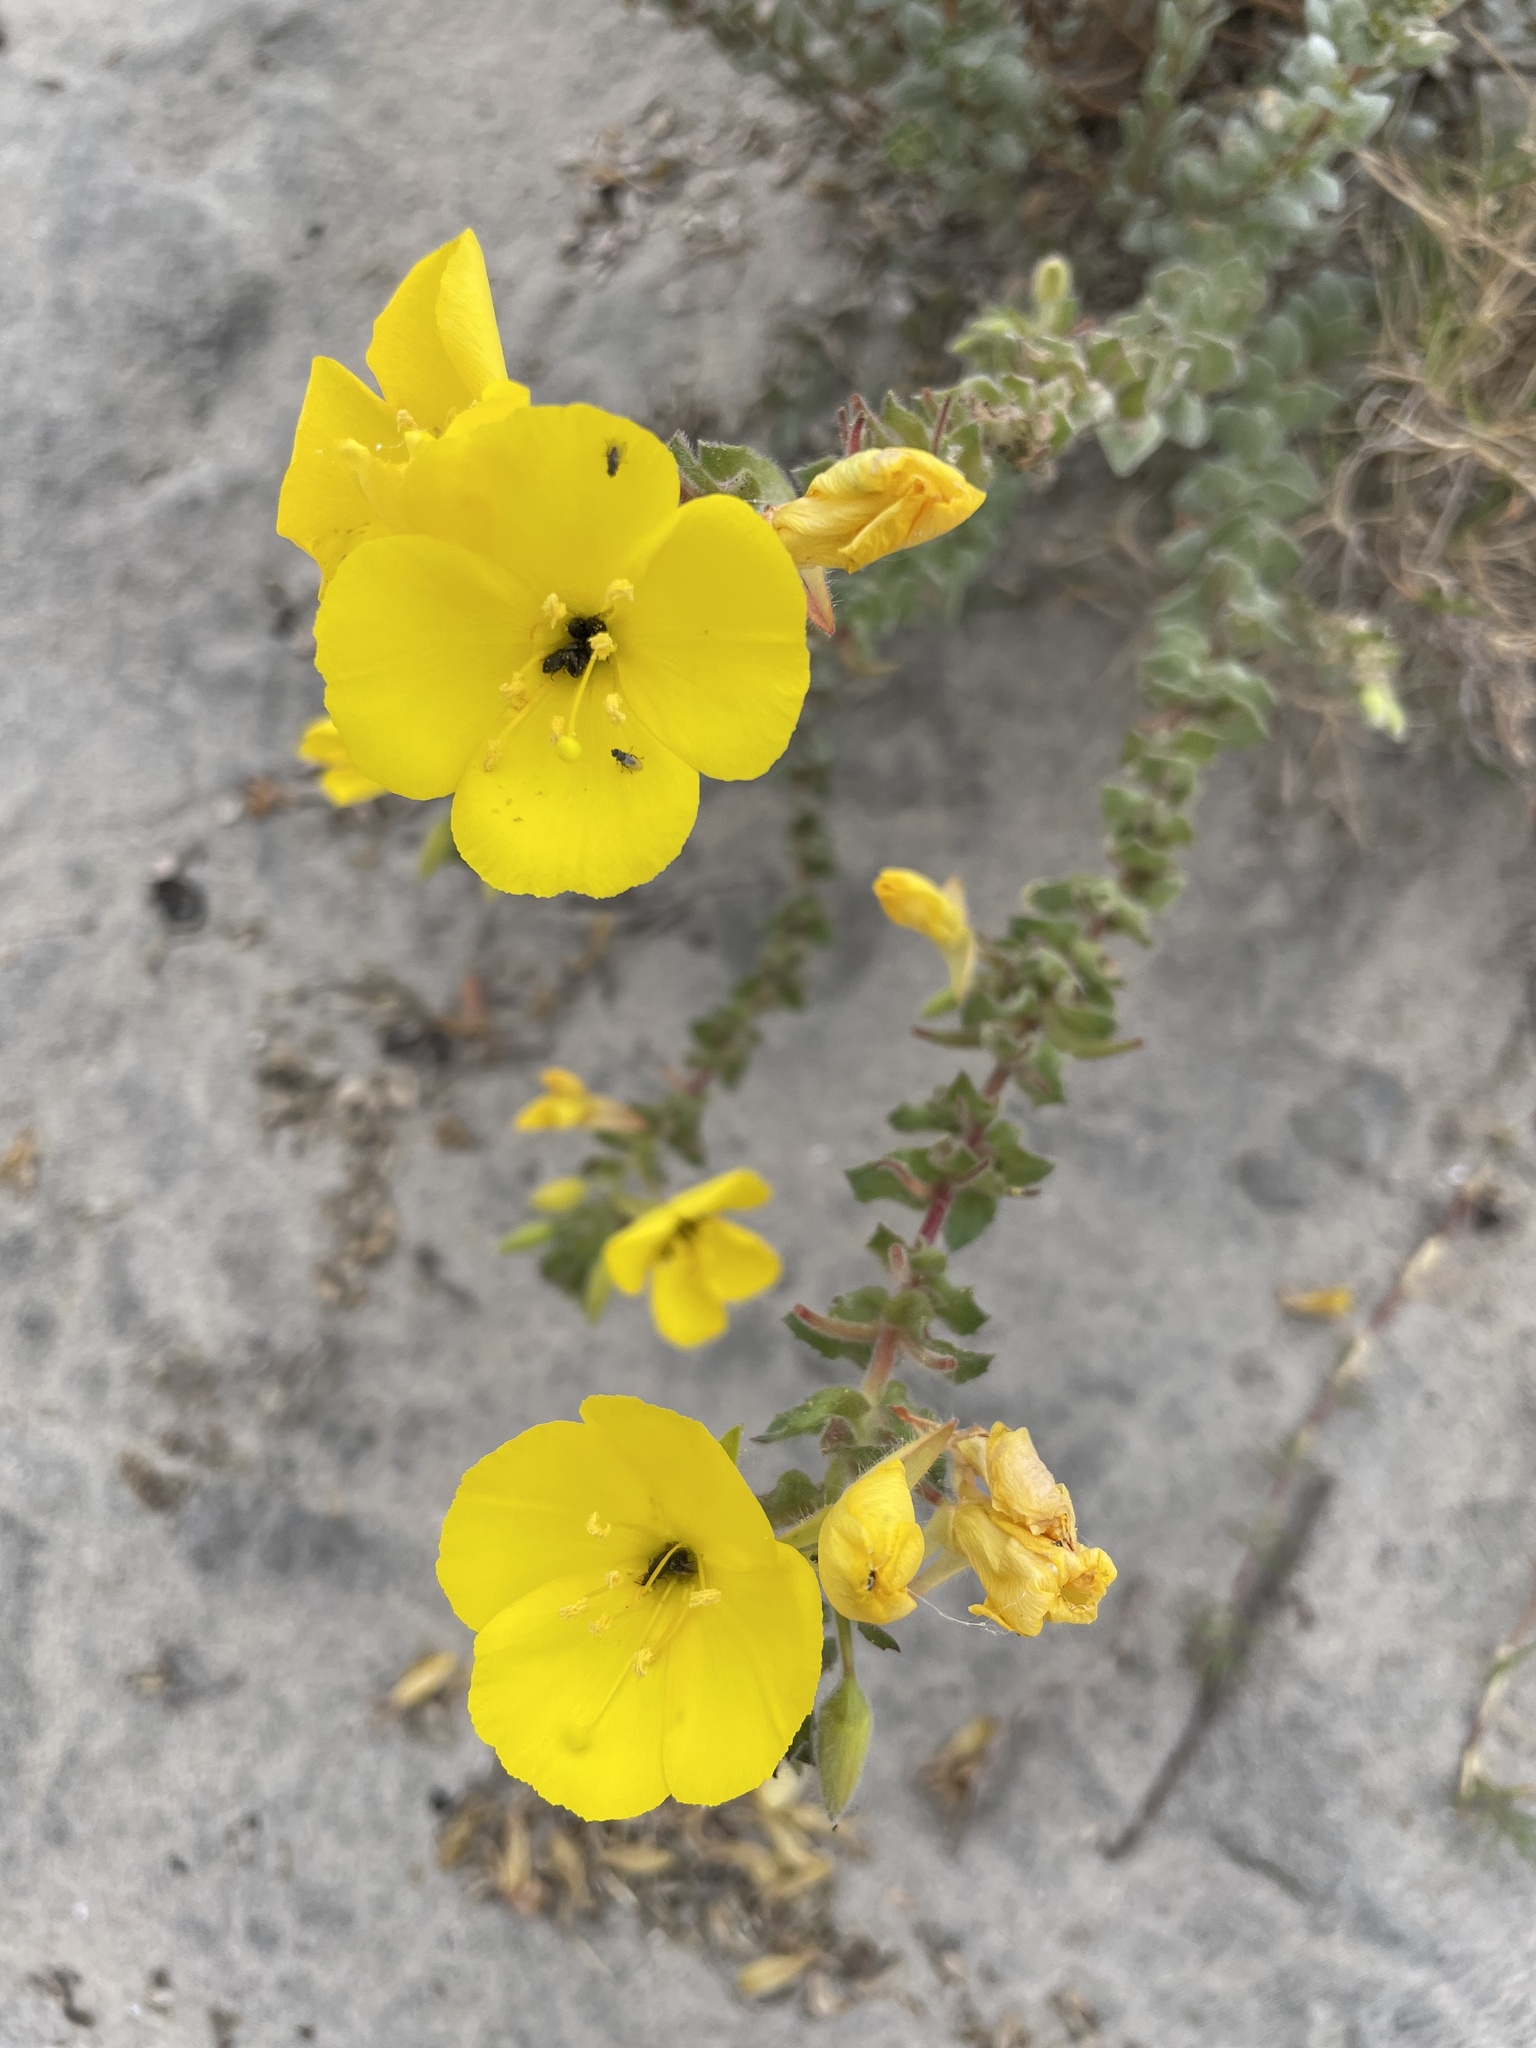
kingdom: Plantae
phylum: Tracheophyta
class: Magnoliopsida
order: Myrtales
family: Onagraceae
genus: Camissoniopsis
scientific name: Camissoniopsis cheiranthifolia
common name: Beach suncup
